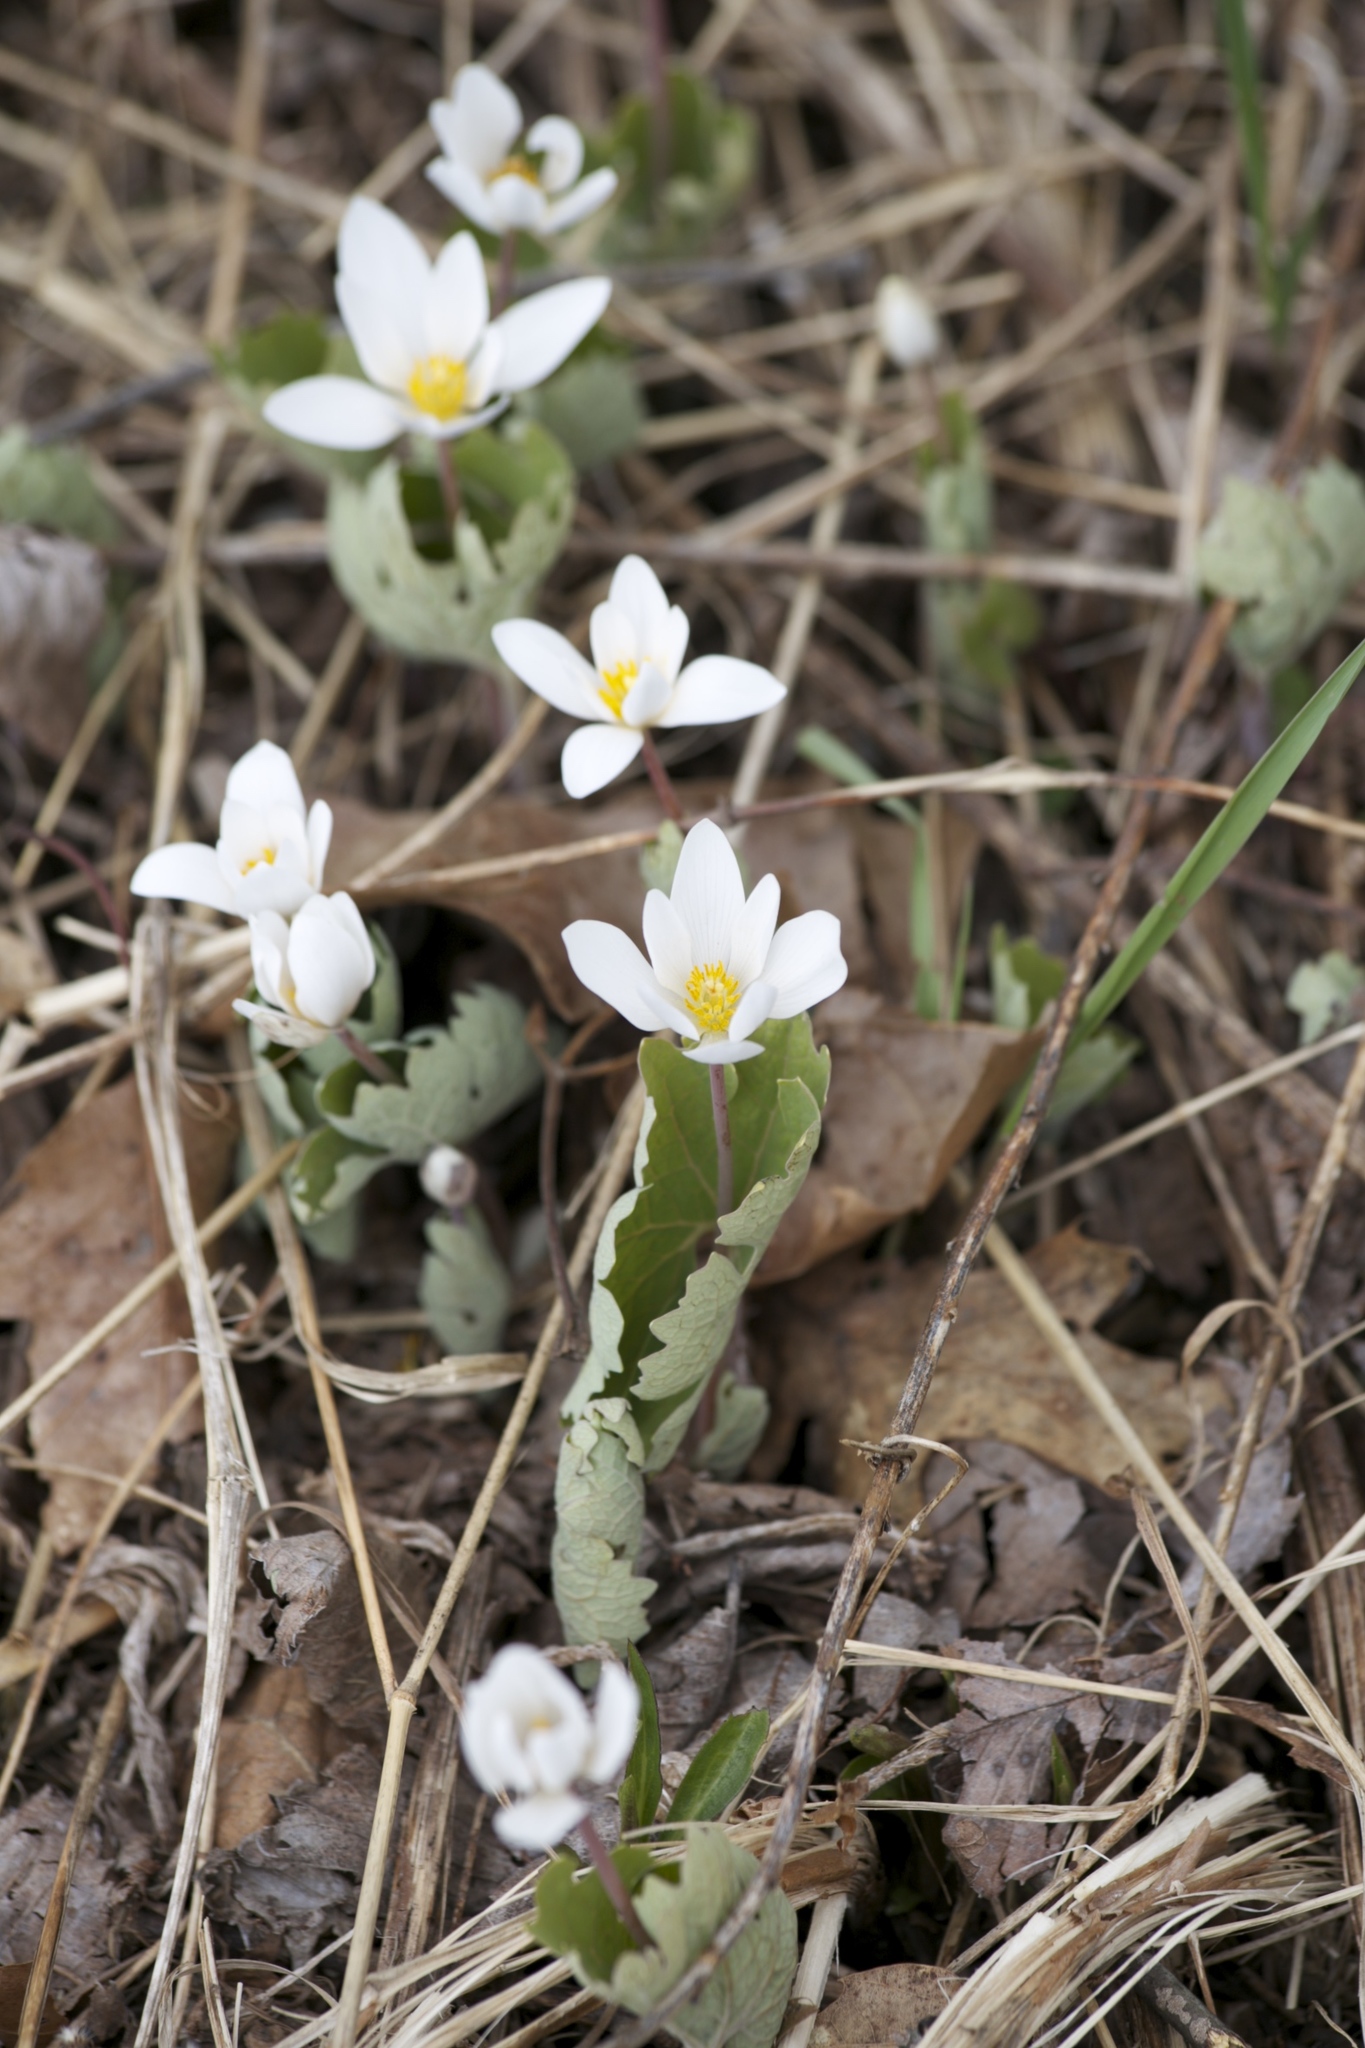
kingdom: Plantae
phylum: Tracheophyta
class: Magnoliopsida
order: Ranunculales
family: Papaveraceae
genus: Sanguinaria
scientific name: Sanguinaria canadensis
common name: Bloodroot
